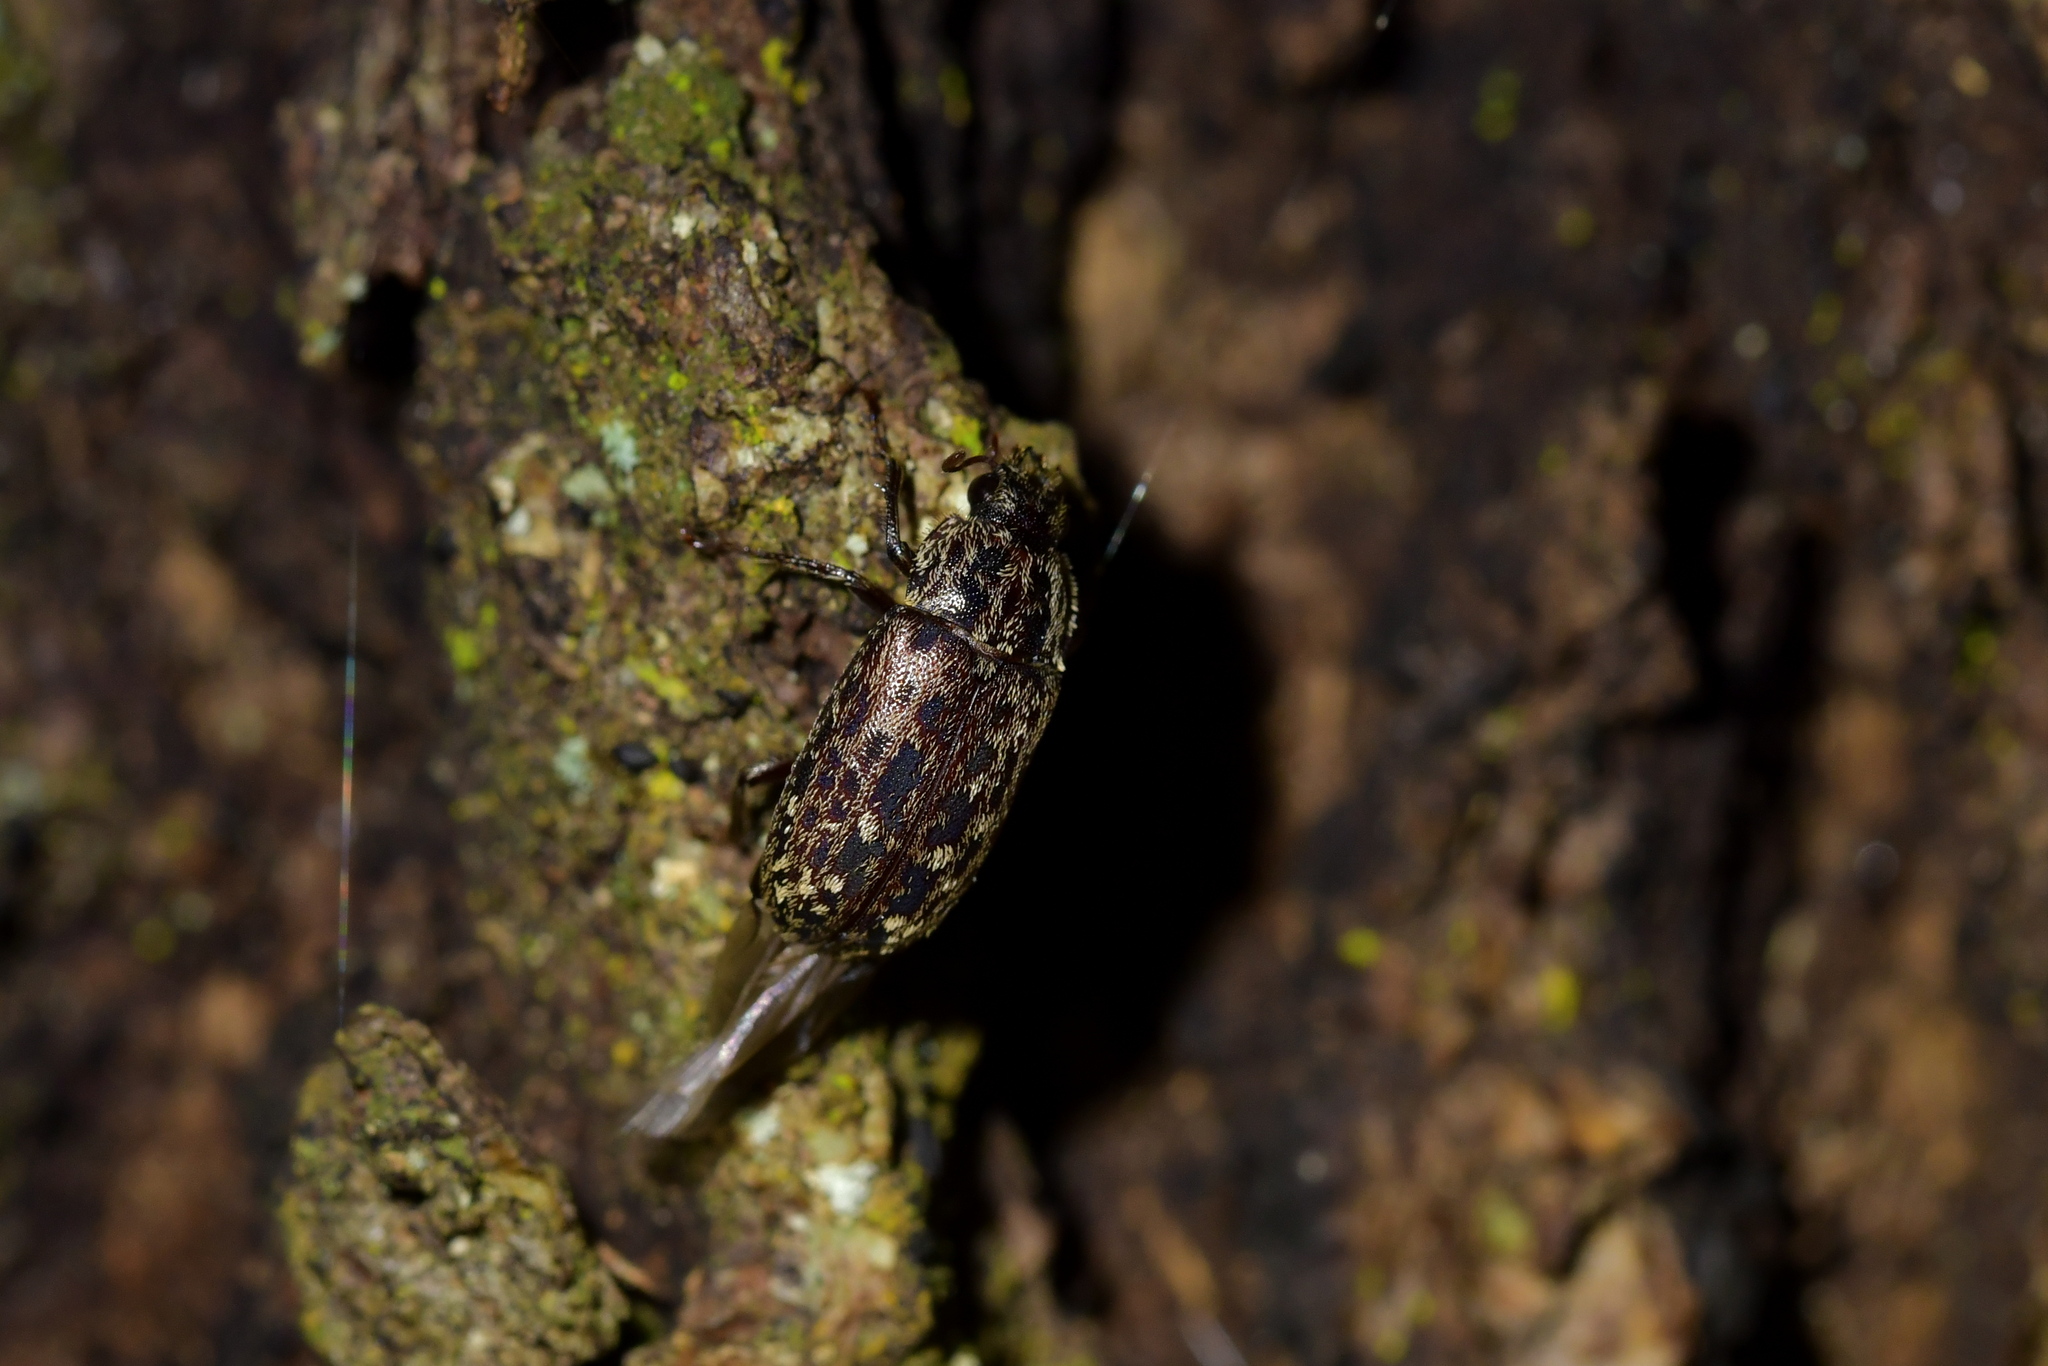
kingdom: Animalia
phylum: Arthropoda
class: Insecta
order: Coleoptera
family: Lucanidae
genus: Mitophyllus
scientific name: Mitophyllus irroratus
